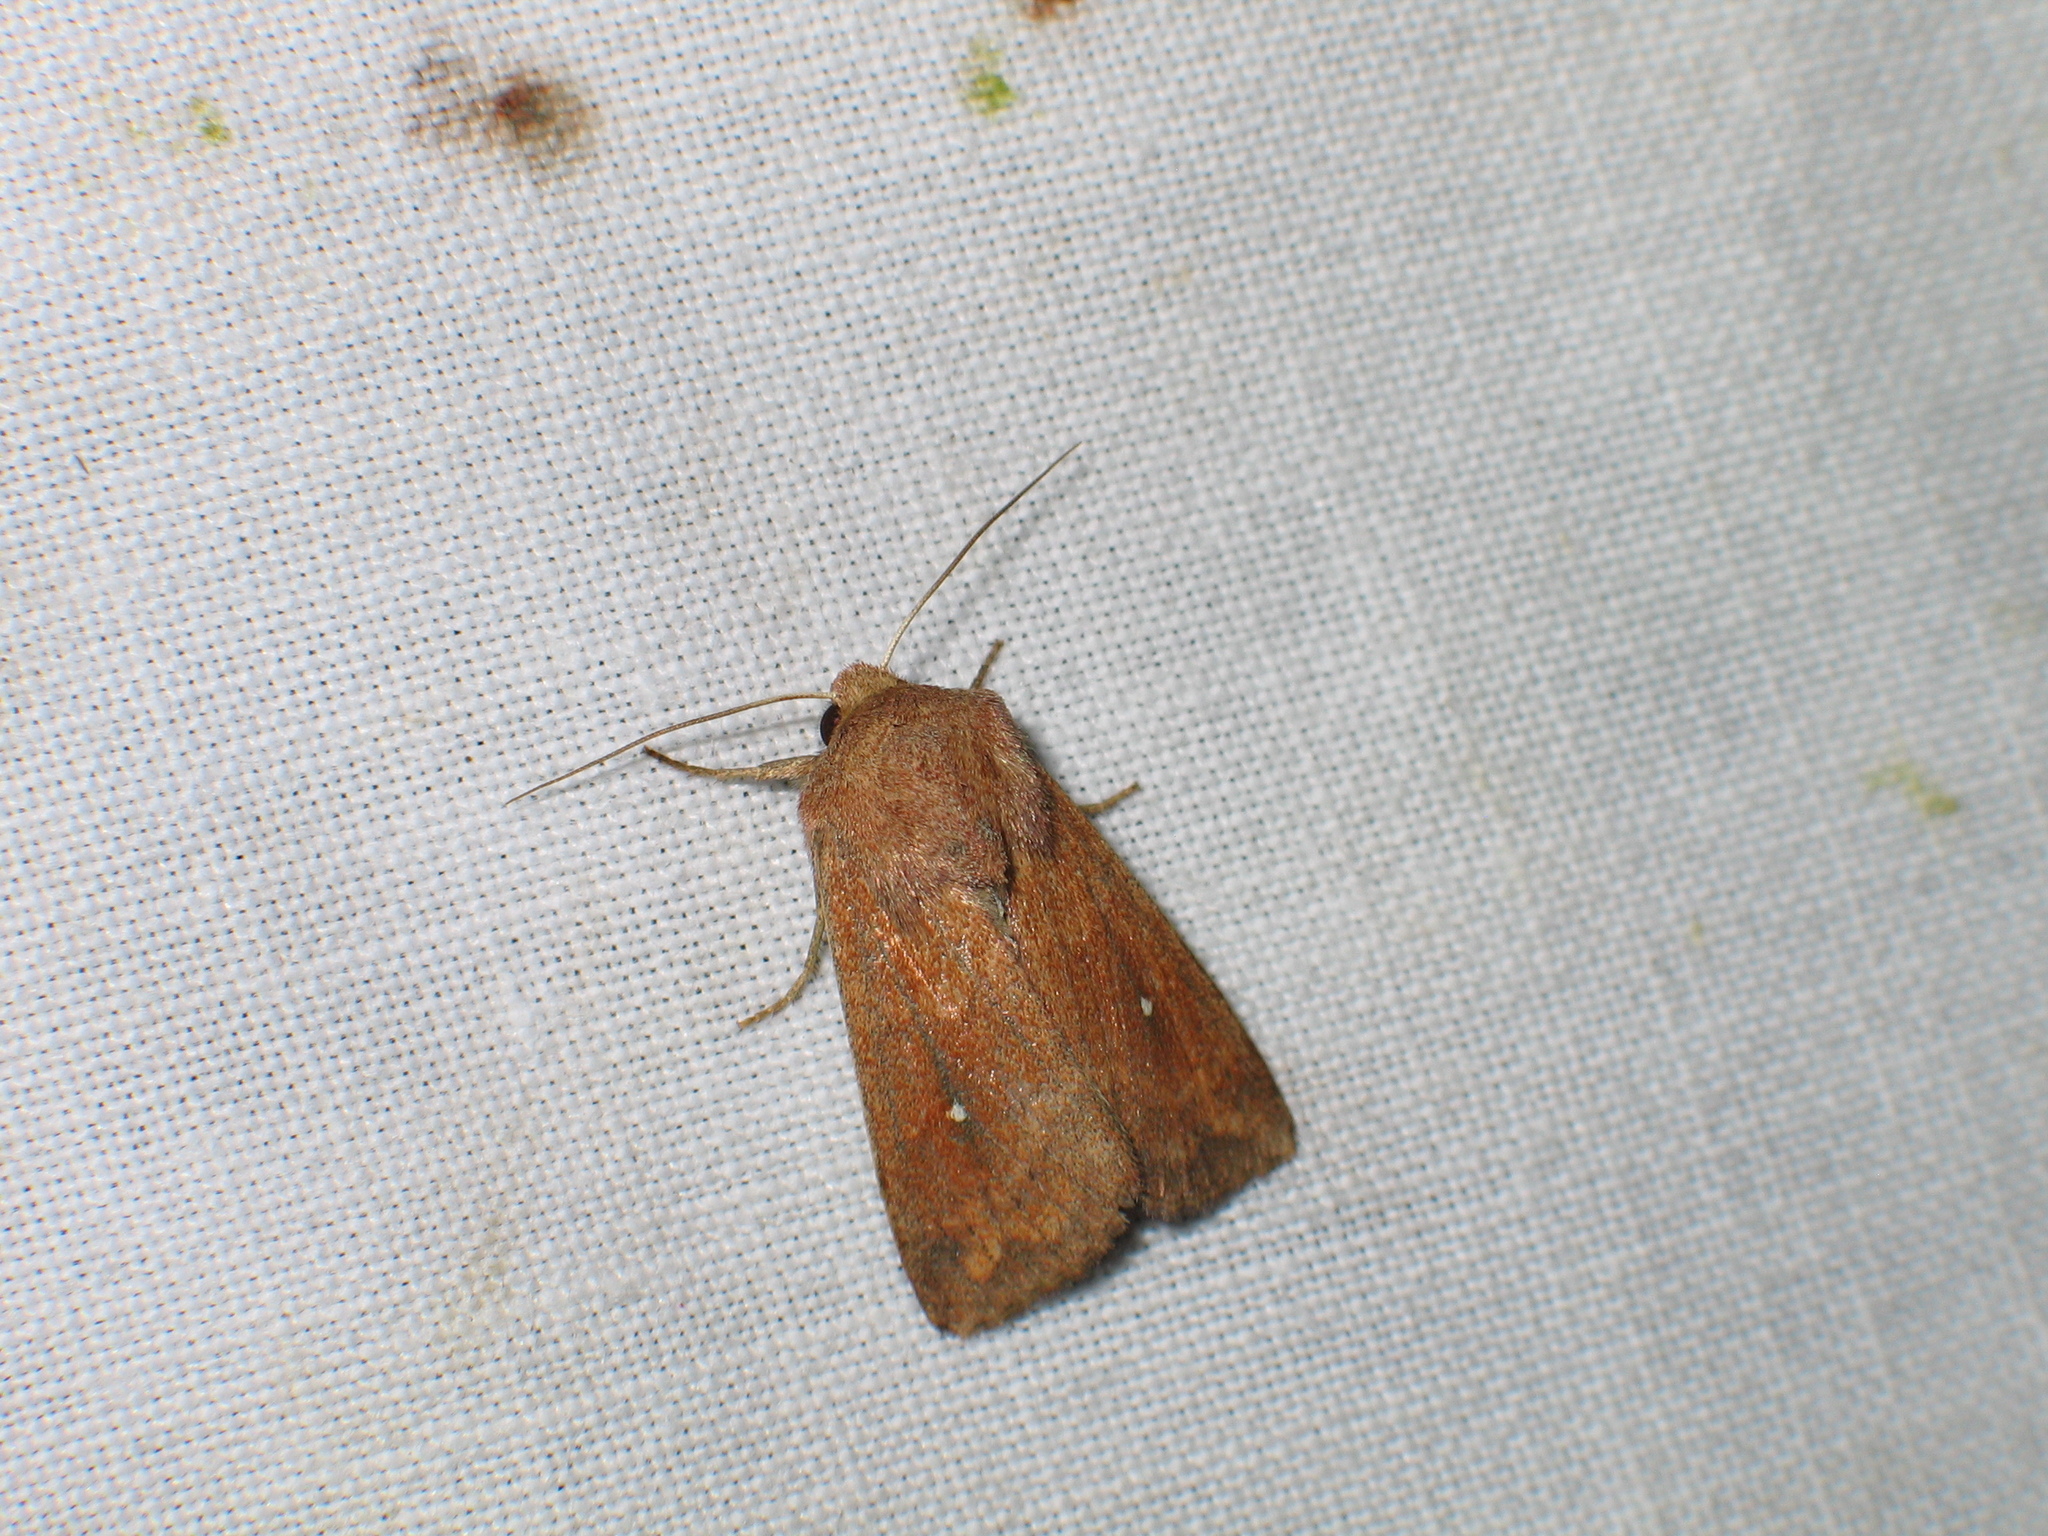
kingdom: Animalia
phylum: Arthropoda
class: Insecta
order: Lepidoptera
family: Noctuidae
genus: Mythimna
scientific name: Mythimna albipuncta
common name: White-point
